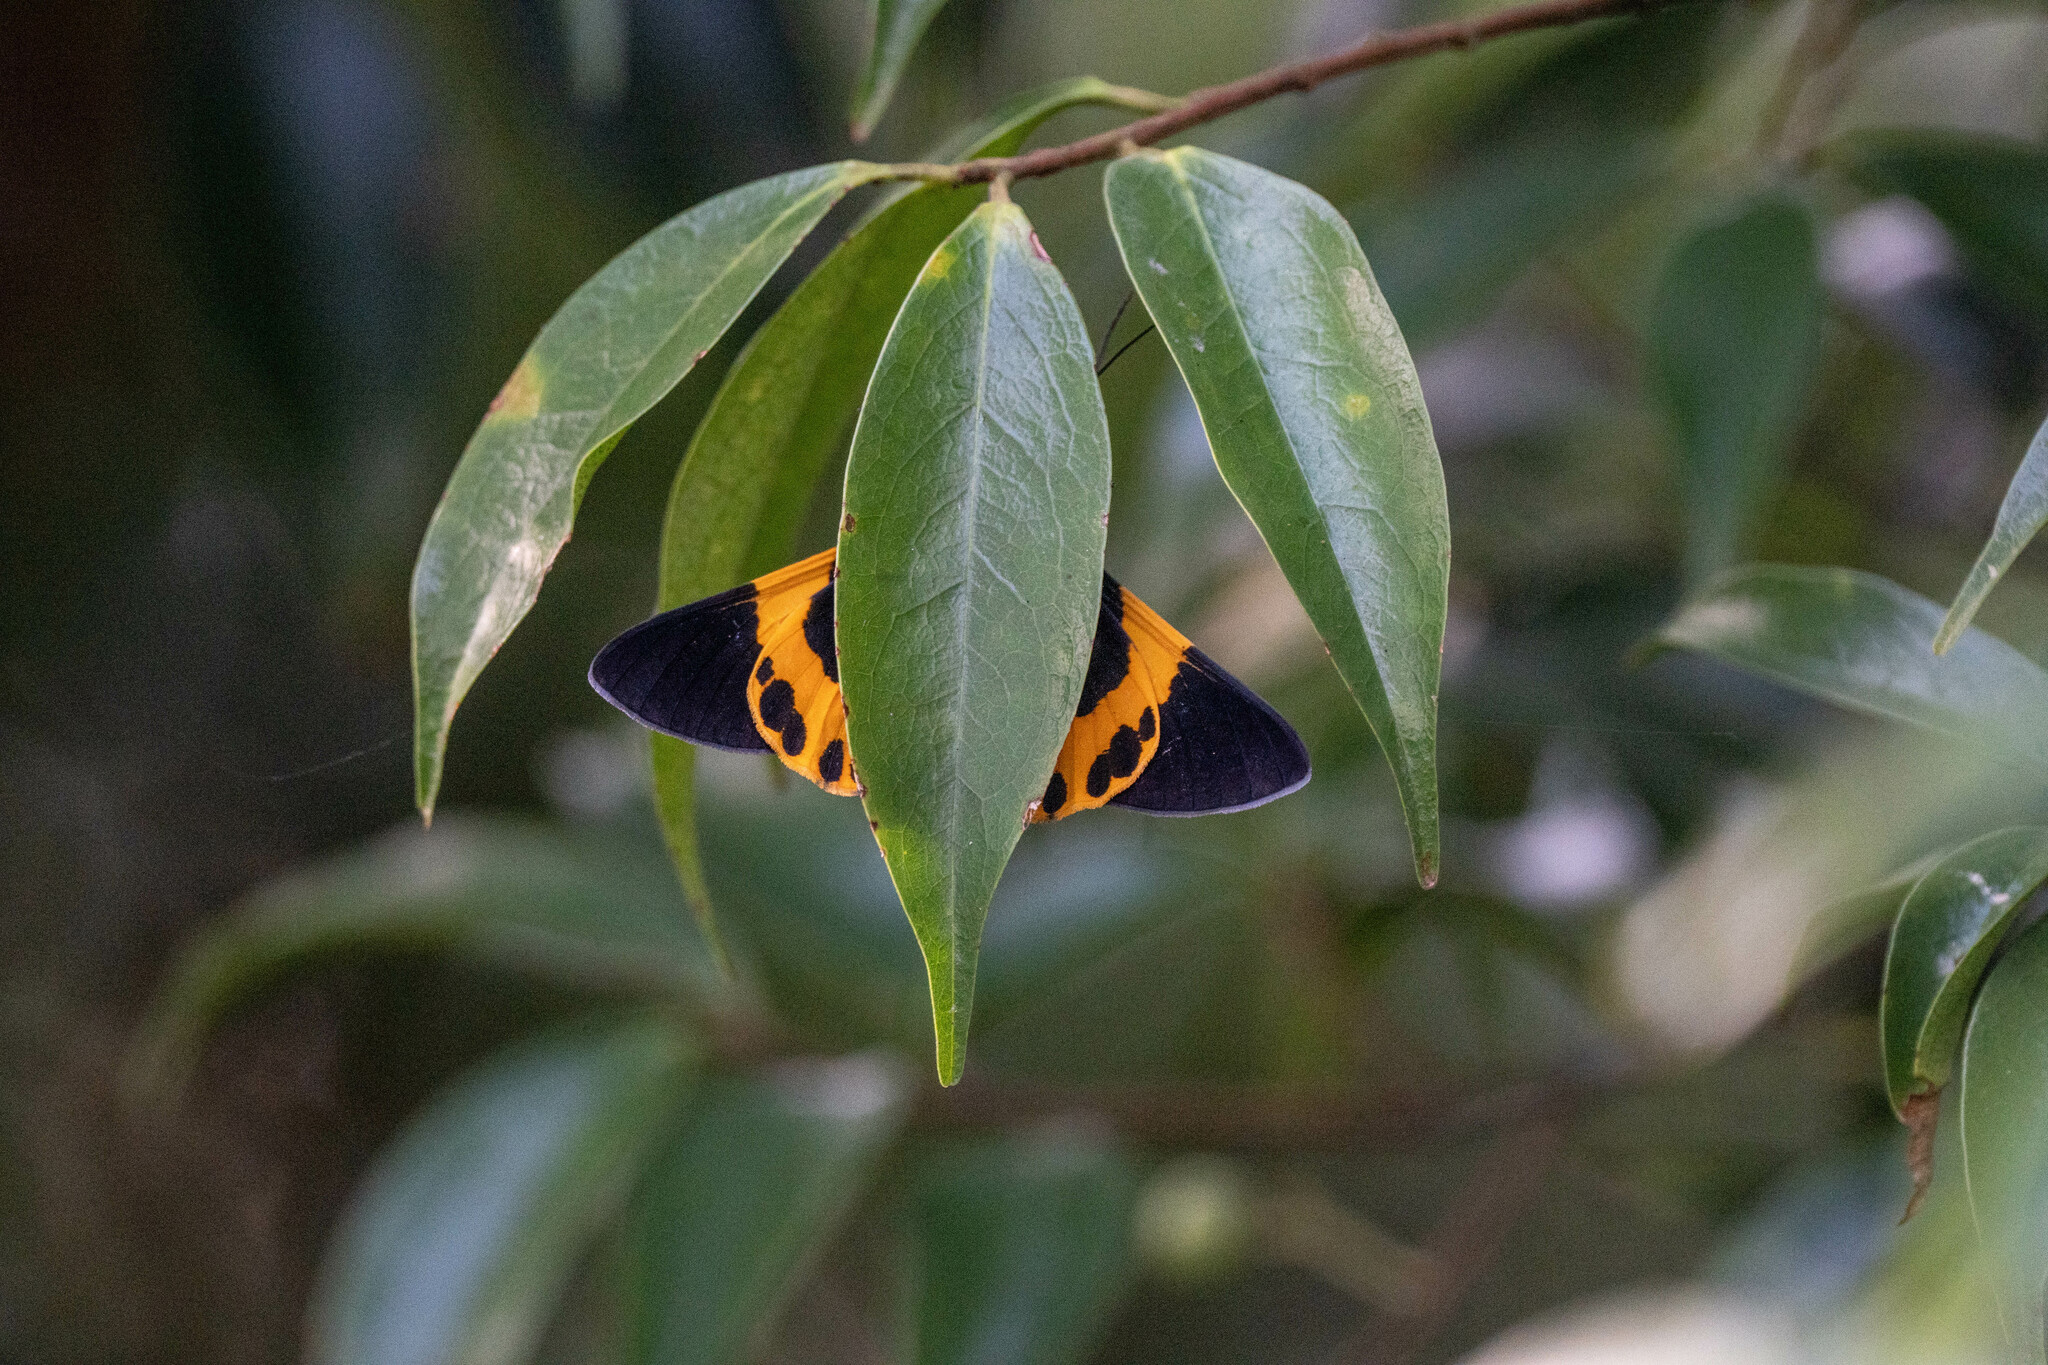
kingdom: Animalia
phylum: Arthropoda
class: Insecta
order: Lepidoptera
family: Geometridae
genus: Milionia
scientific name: Milionia basalis
